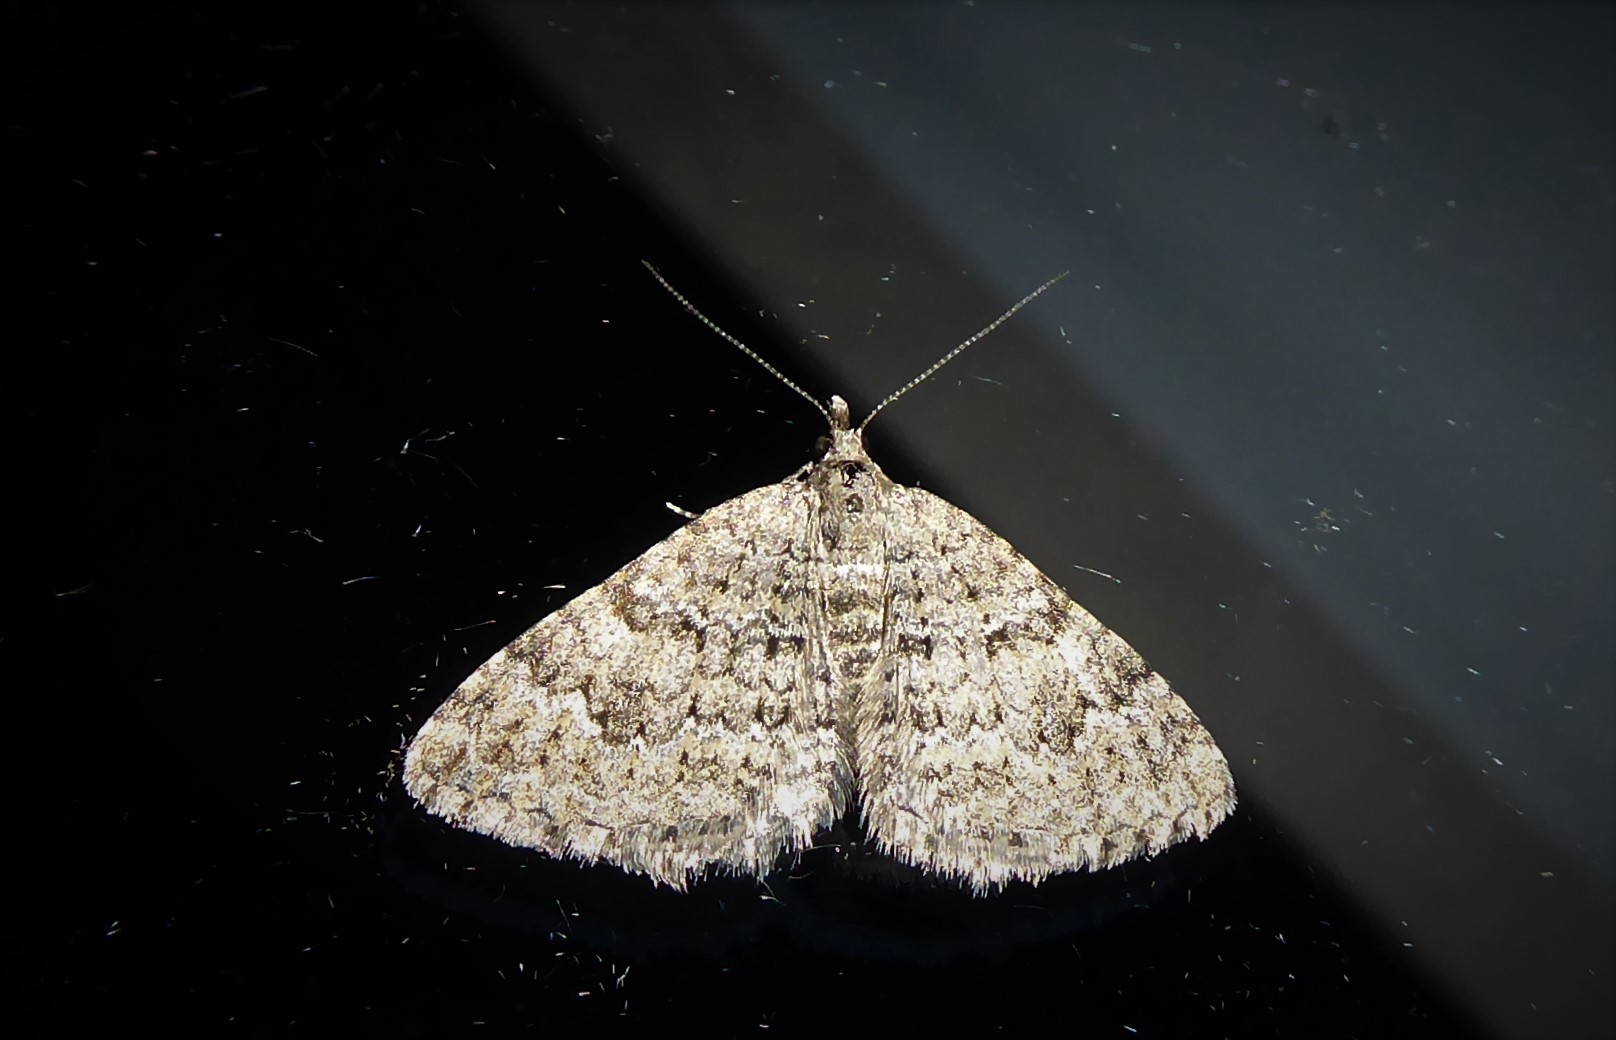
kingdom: Animalia
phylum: Arthropoda
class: Insecta
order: Lepidoptera
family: Geometridae
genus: Helastia
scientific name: Helastia corcularia
